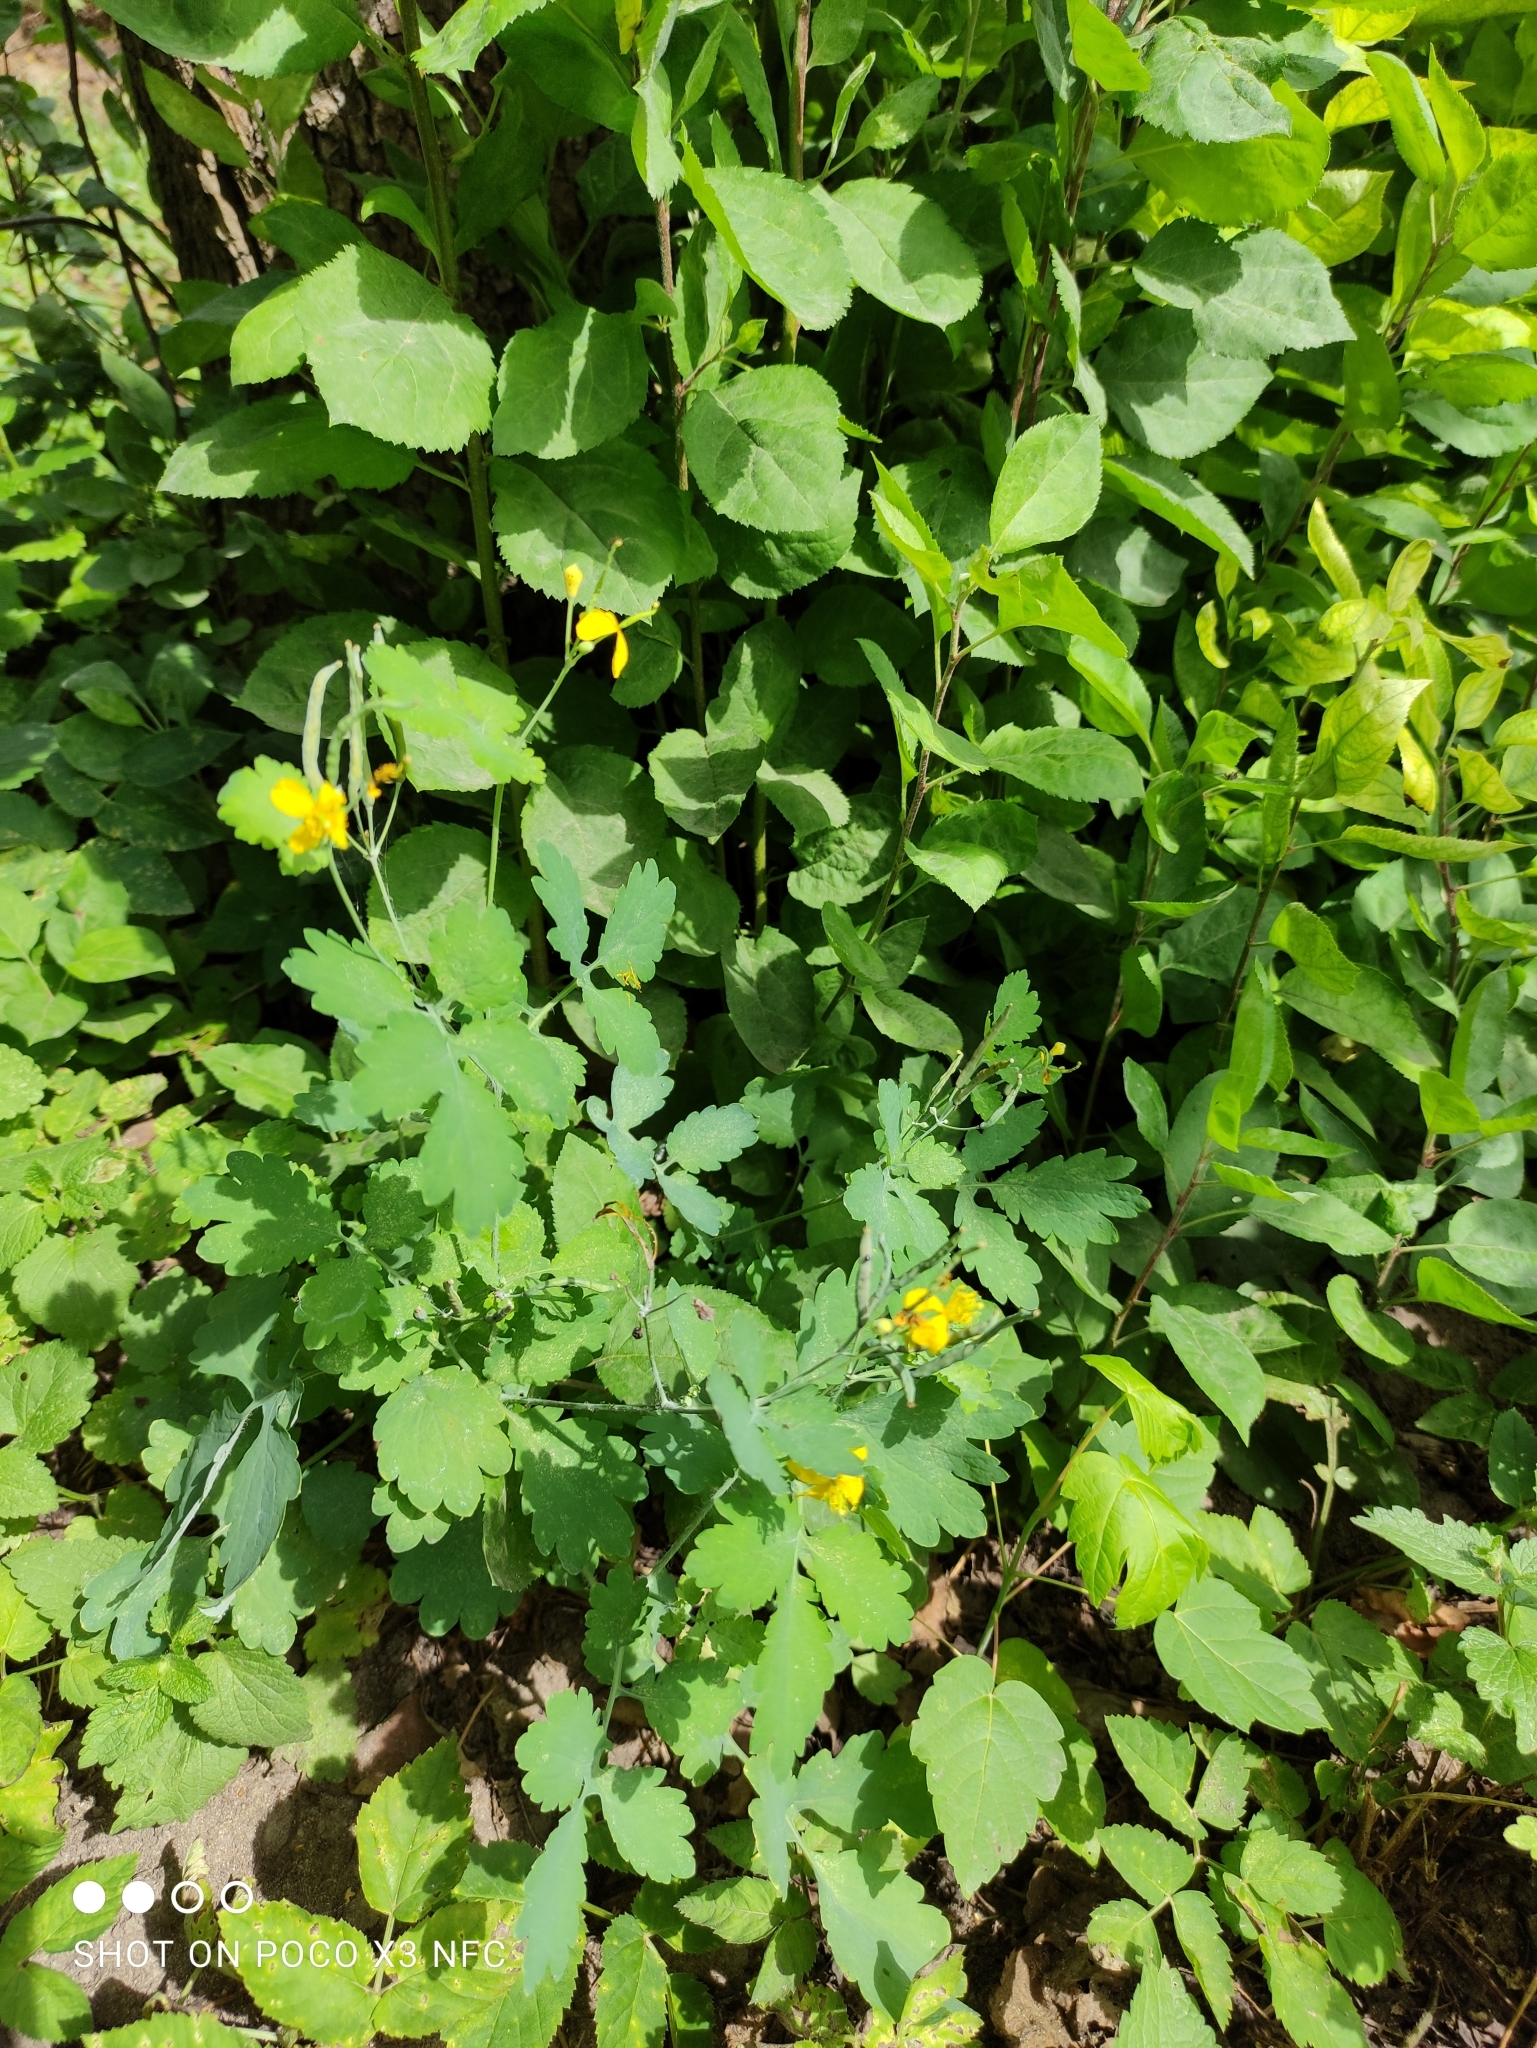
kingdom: Plantae
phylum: Tracheophyta
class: Magnoliopsida
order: Ranunculales
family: Papaveraceae
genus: Chelidonium
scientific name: Chelidonium majus
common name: Greater celandine
